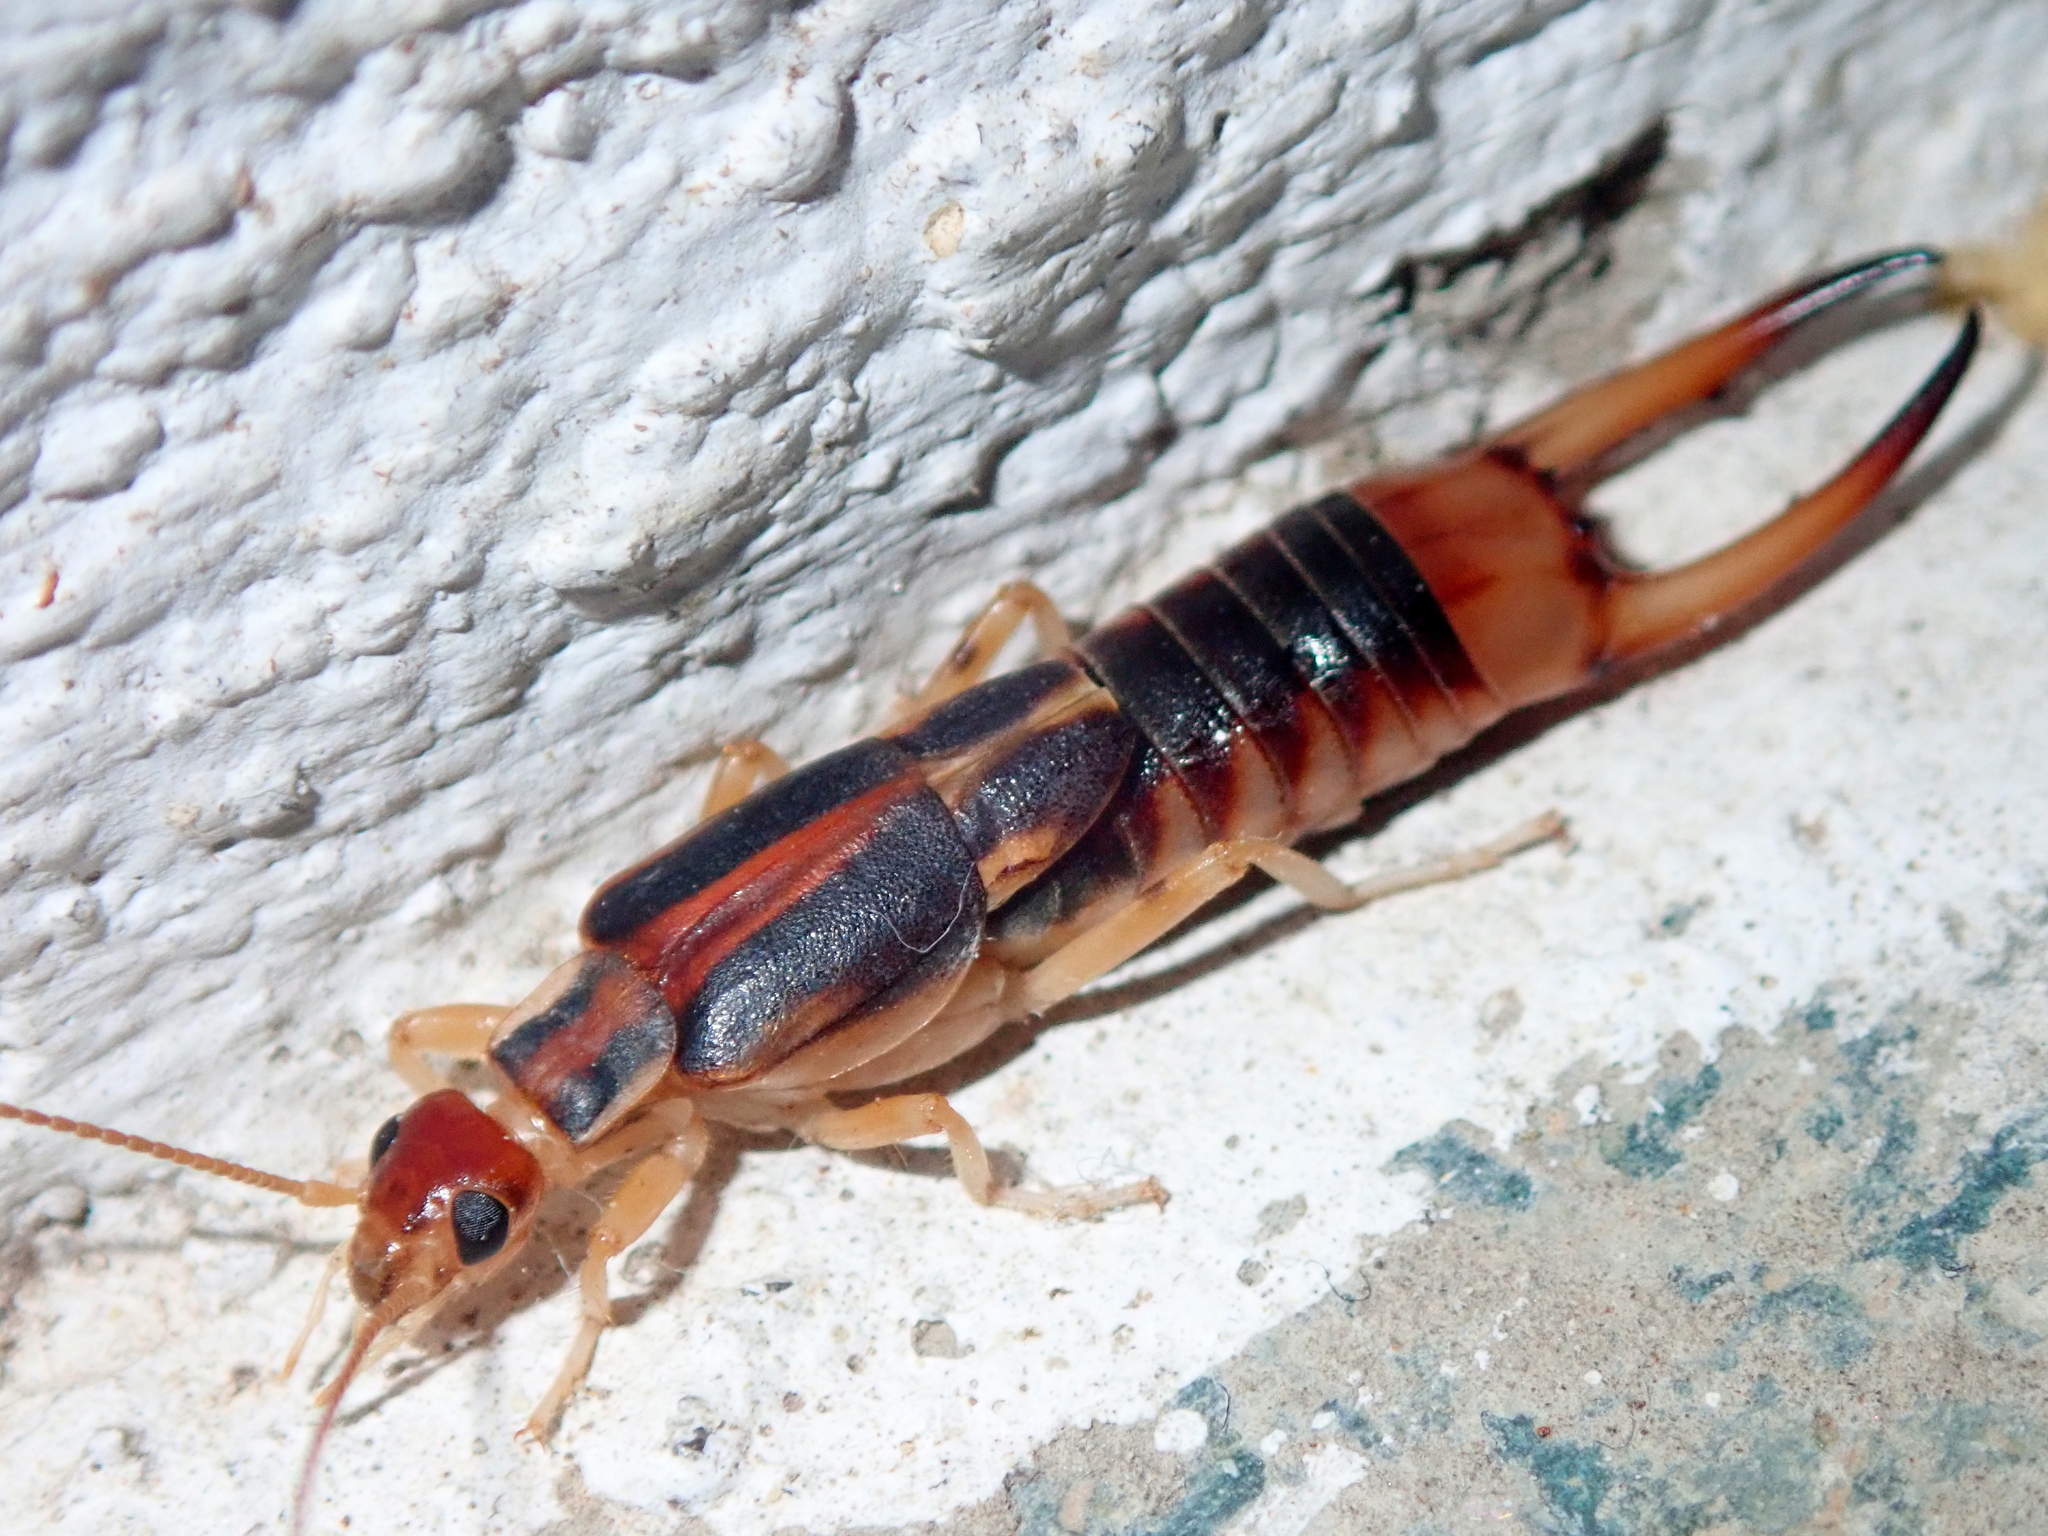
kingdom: Animalia
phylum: Arthropoda
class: Insecta
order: Dermaptera
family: Labiduridae
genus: Labidura
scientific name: Labidura riparia
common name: Striped earwig
